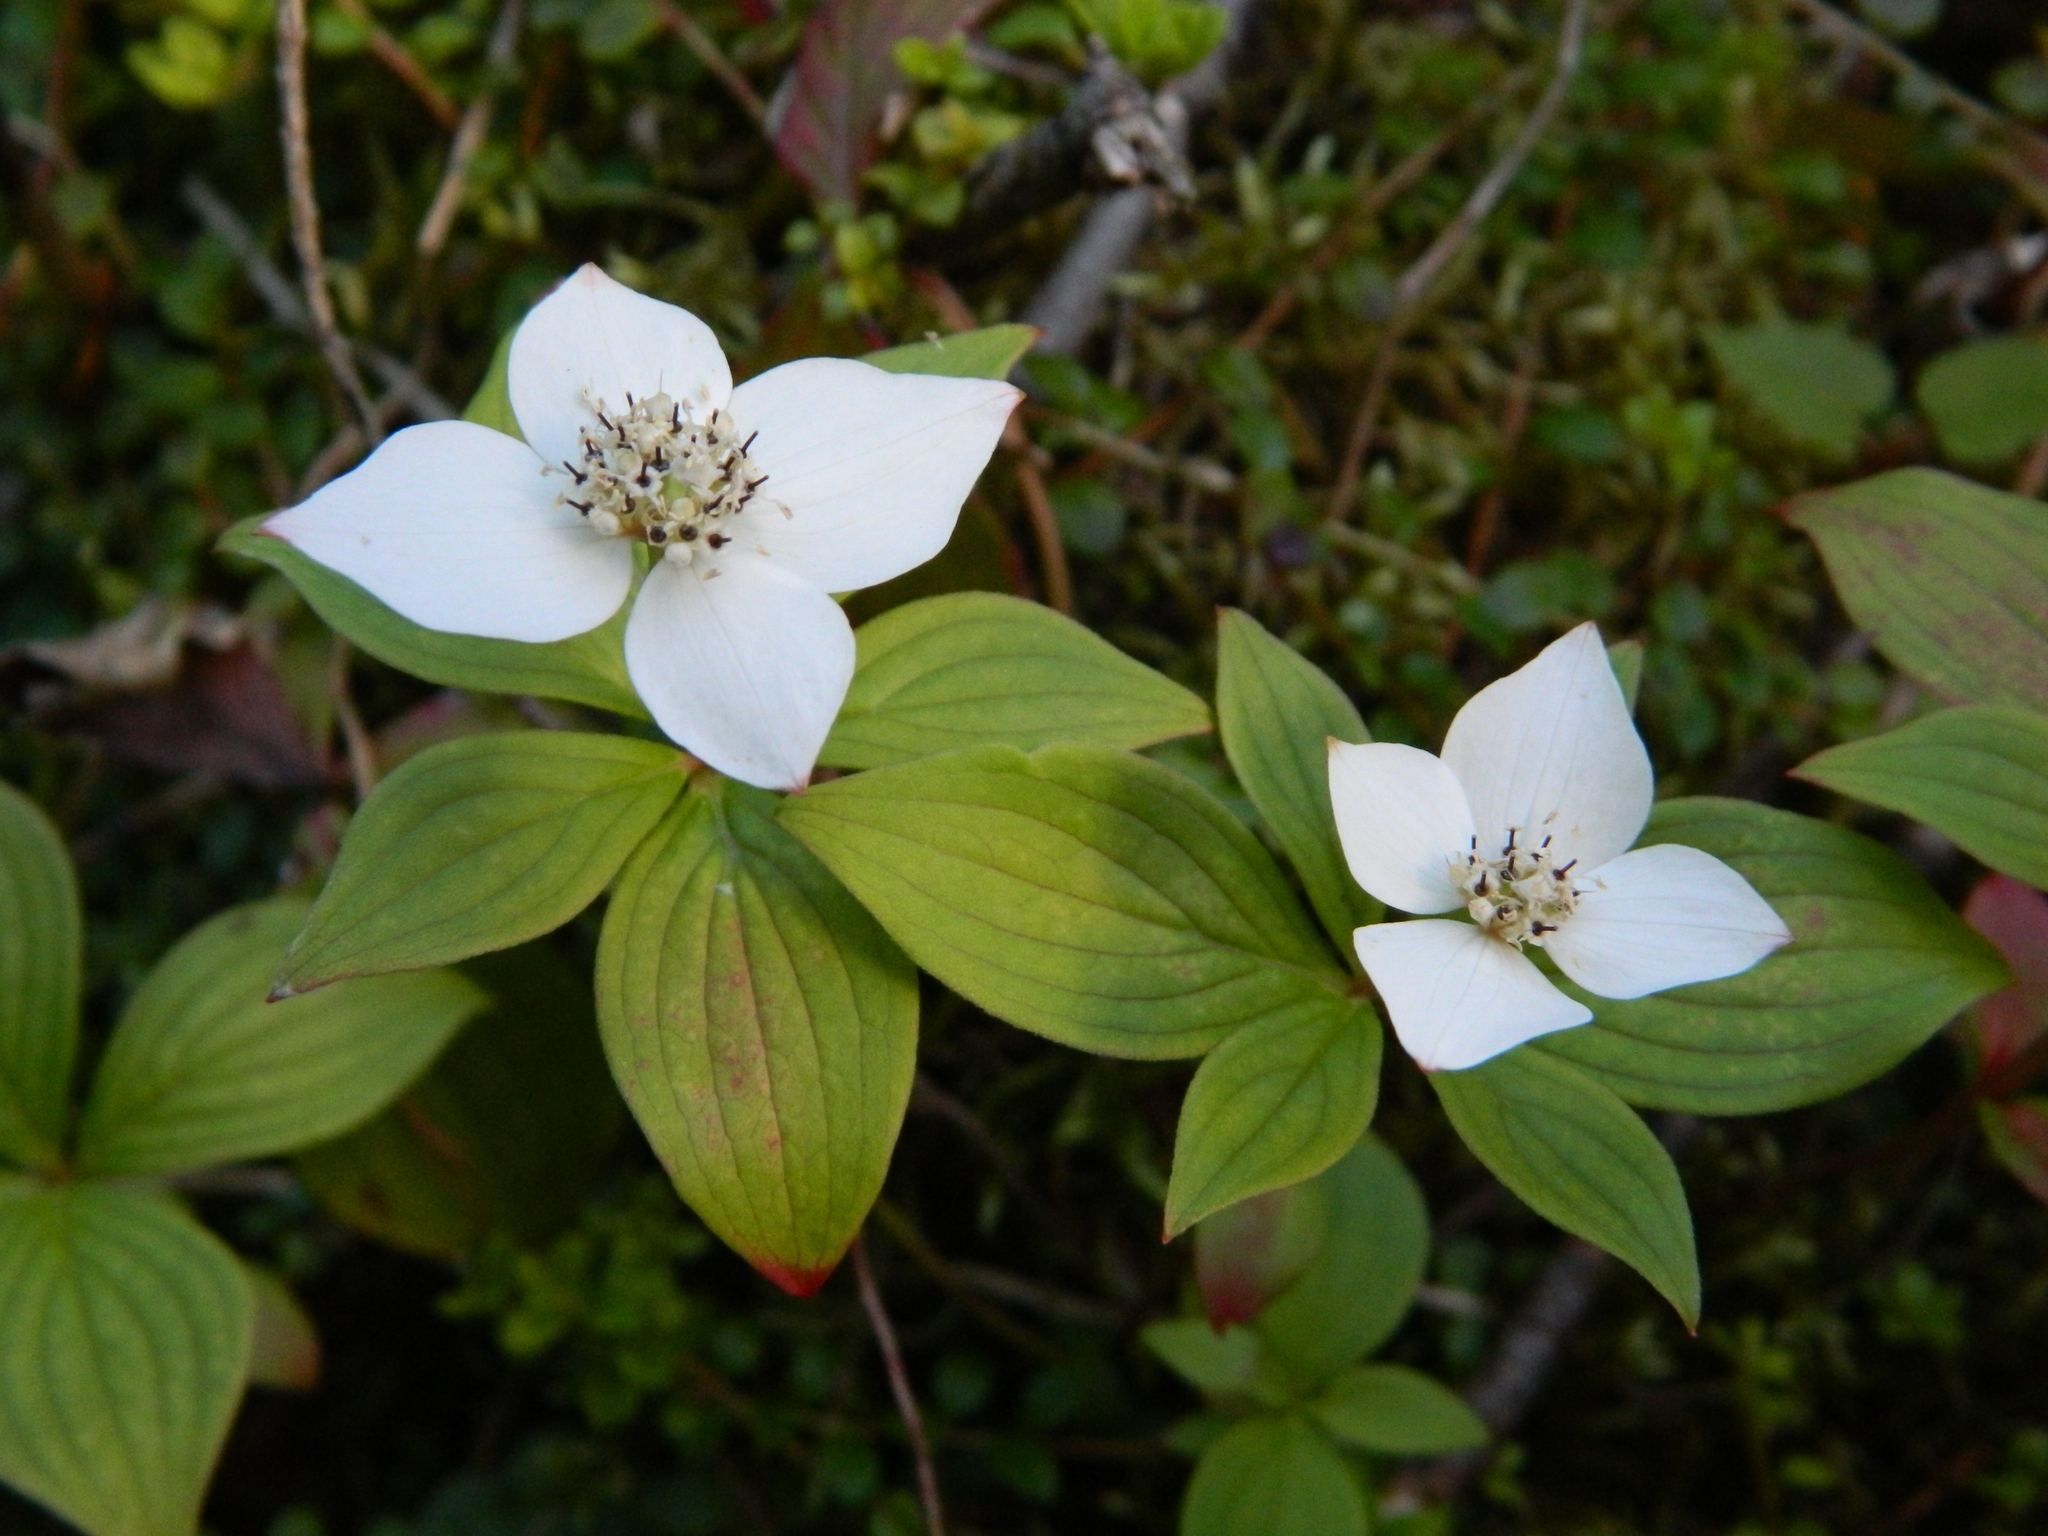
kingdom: Plantae
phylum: Tracheophyta
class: Magnoliopsida
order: Cornales
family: Cornaceae
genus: Cornus
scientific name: Cornus canadensis
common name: Creeping dogwood
